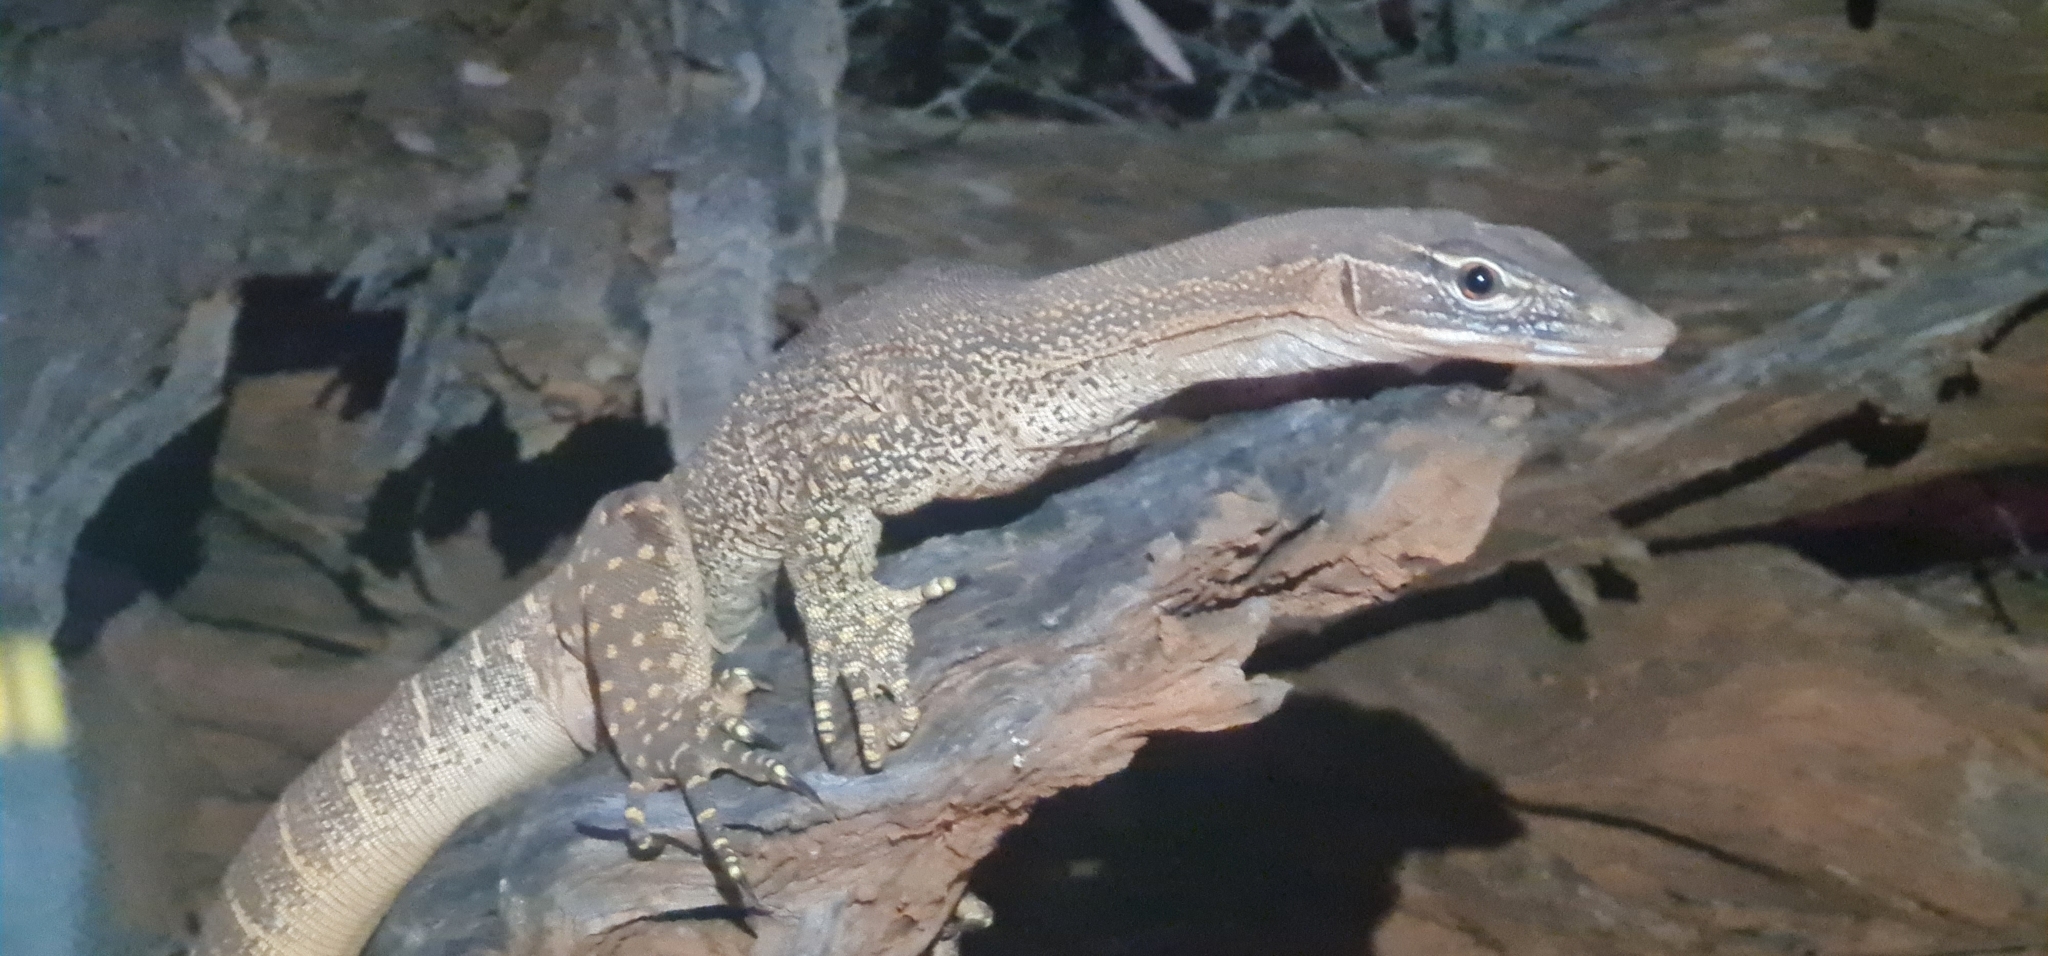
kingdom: Animalia
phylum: Chordata
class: Squamata
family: Varanidae
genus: Varanus
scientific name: Varanus gouldii
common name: Gould's goanna
